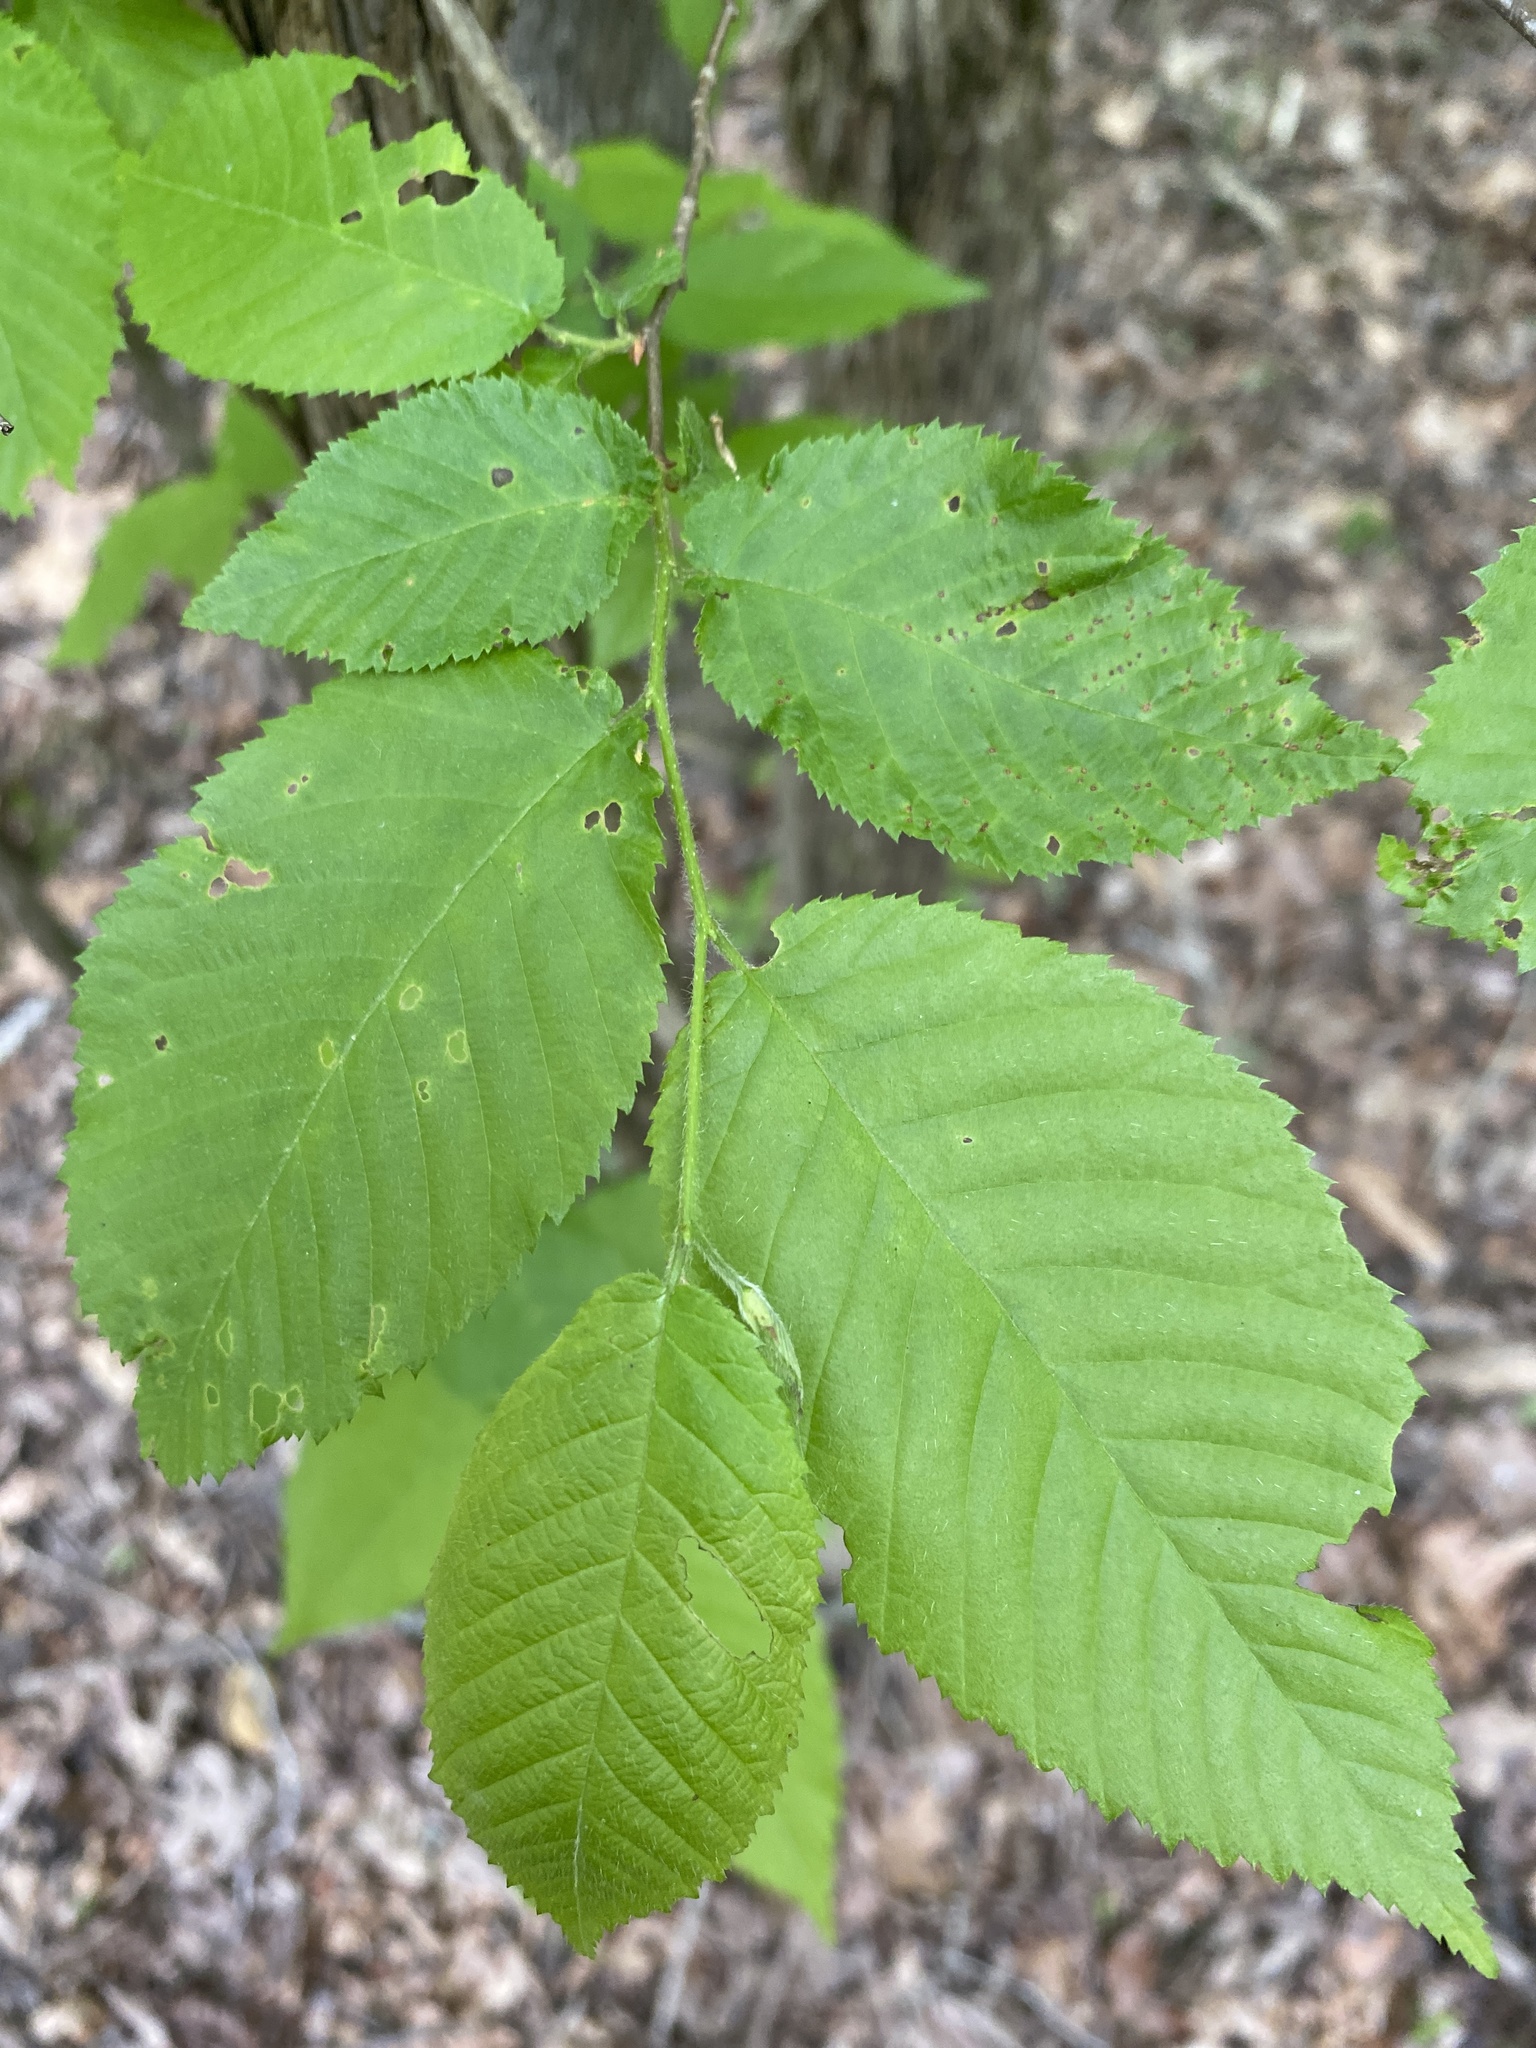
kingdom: Plantae
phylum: Tracheophyta
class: Magnoliopsida
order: Fagales
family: Betulaceae
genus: Ostrya
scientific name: Ostrya virginiana
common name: Ironwood
